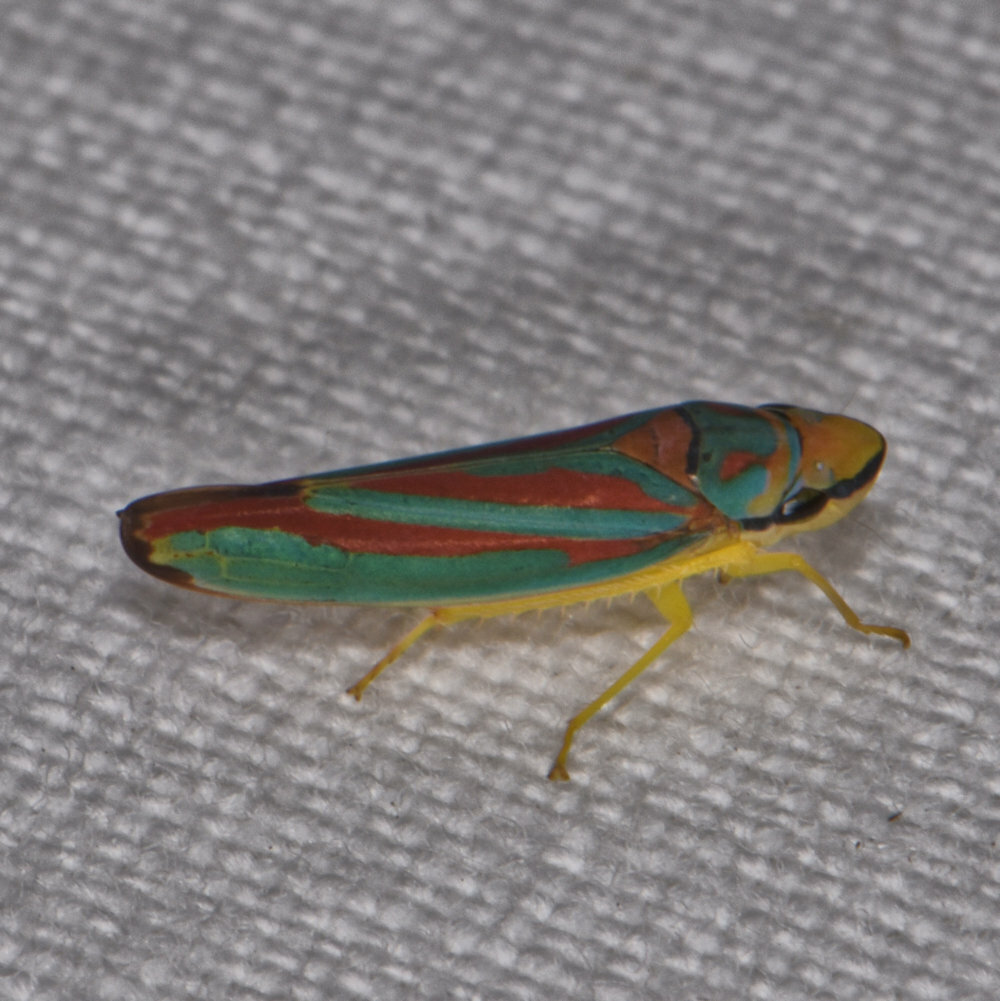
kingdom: Animalia
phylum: Arthropoda
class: Insecta
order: Hemiptera
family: Cicadellidae
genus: Graphocephala
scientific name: Graphocephala coccinea
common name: Candy-striped leafhopper
